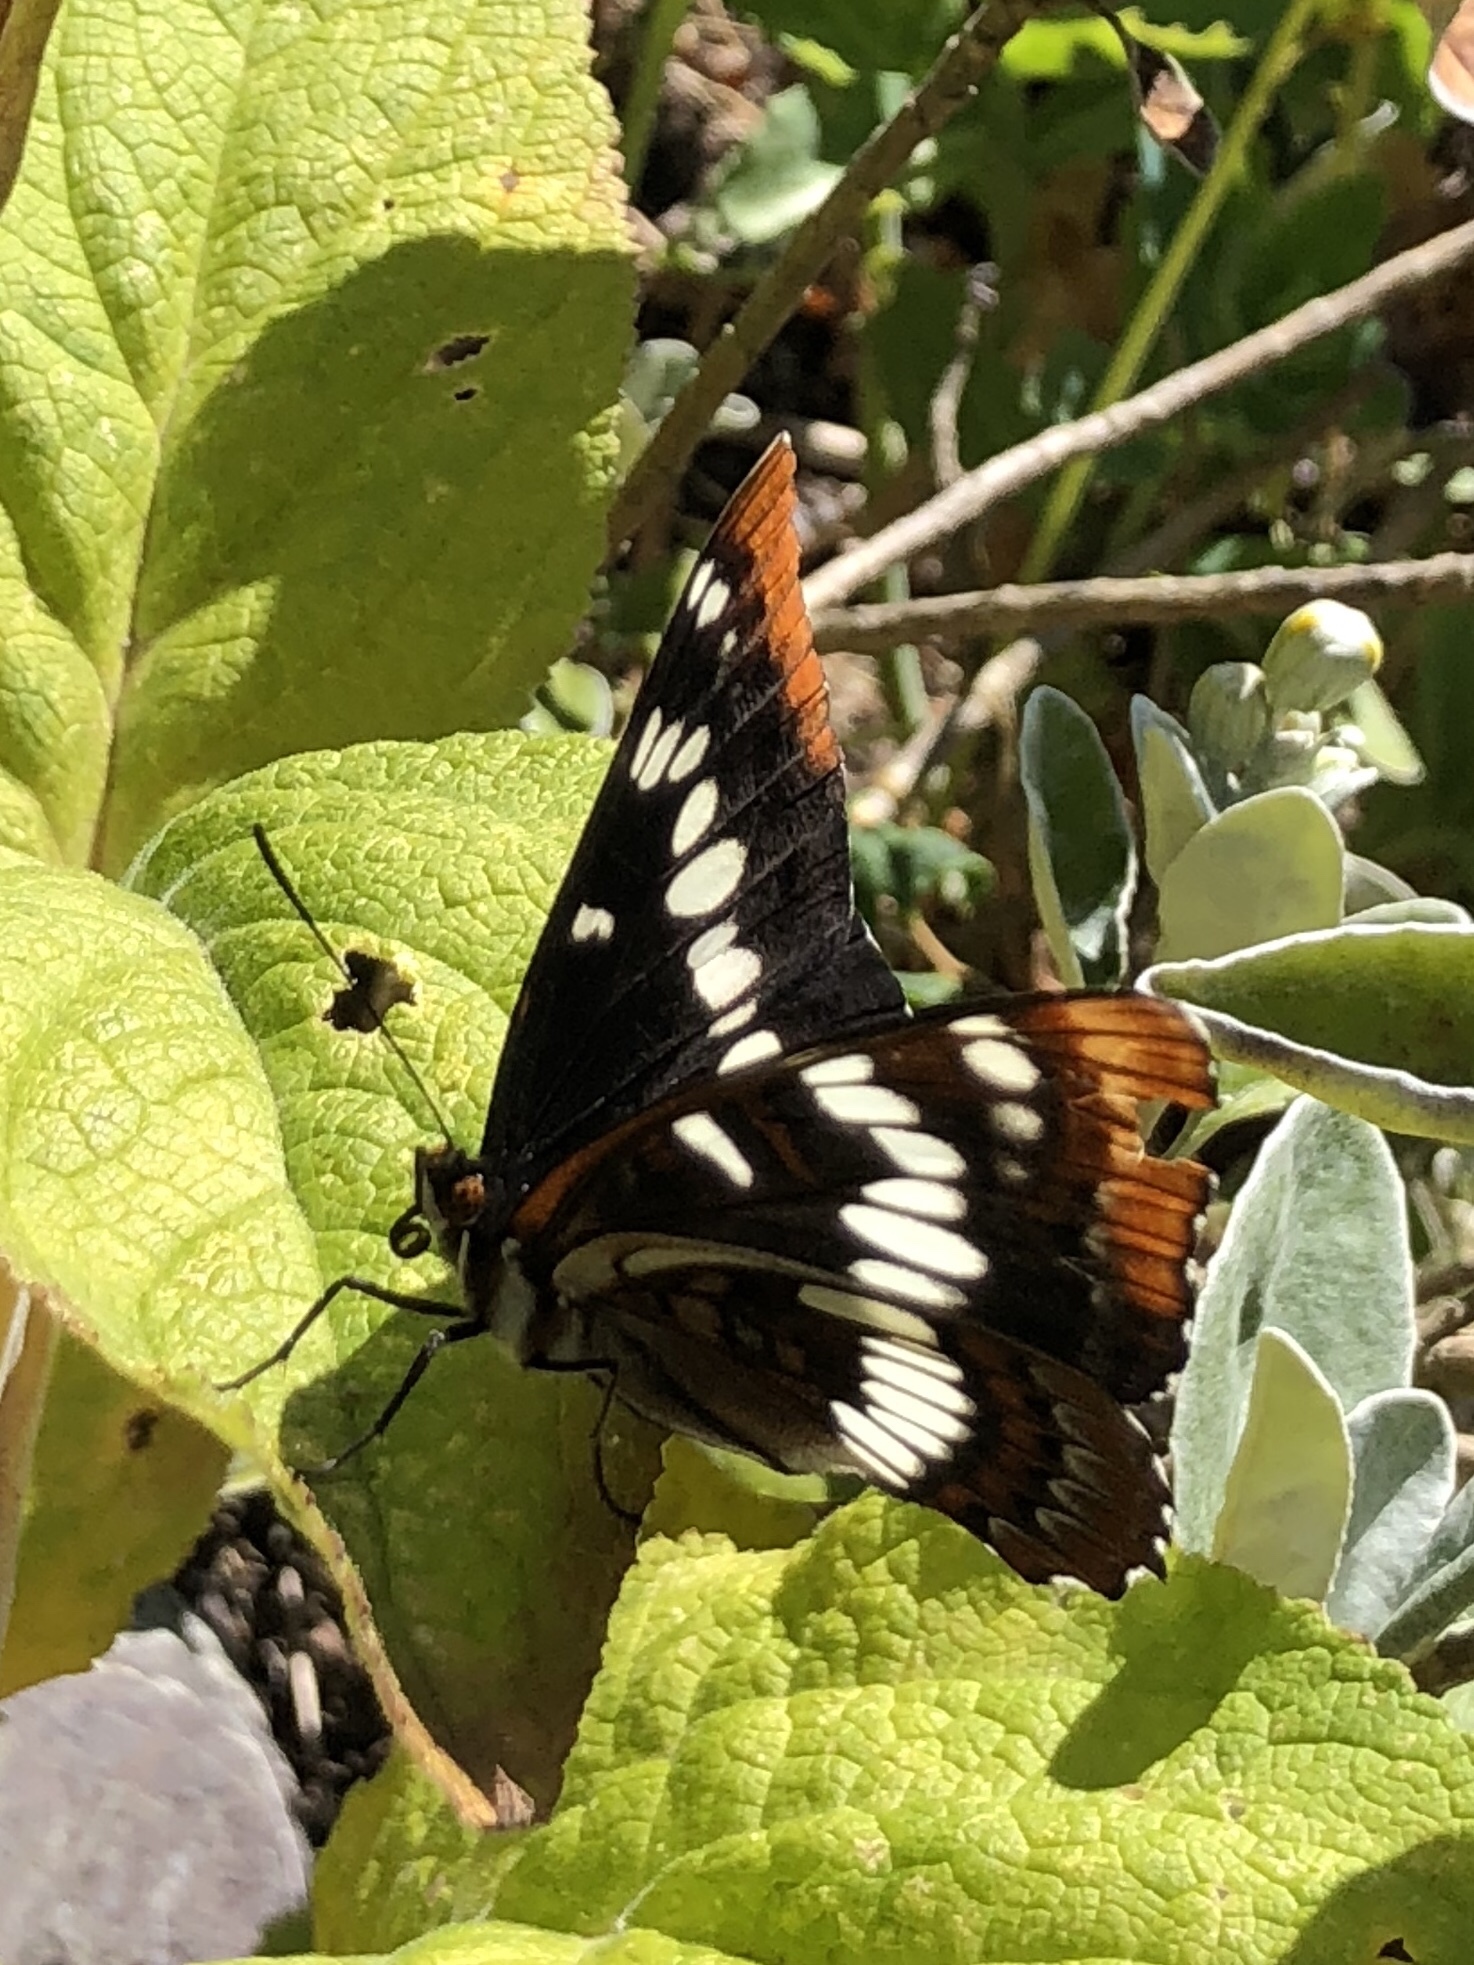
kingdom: Animalia
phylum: Arthropoda
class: Insecta
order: Lepidoptera
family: Nymphalidae
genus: Limenitis
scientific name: Limenitis lorquini
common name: Lorquin's admiral
